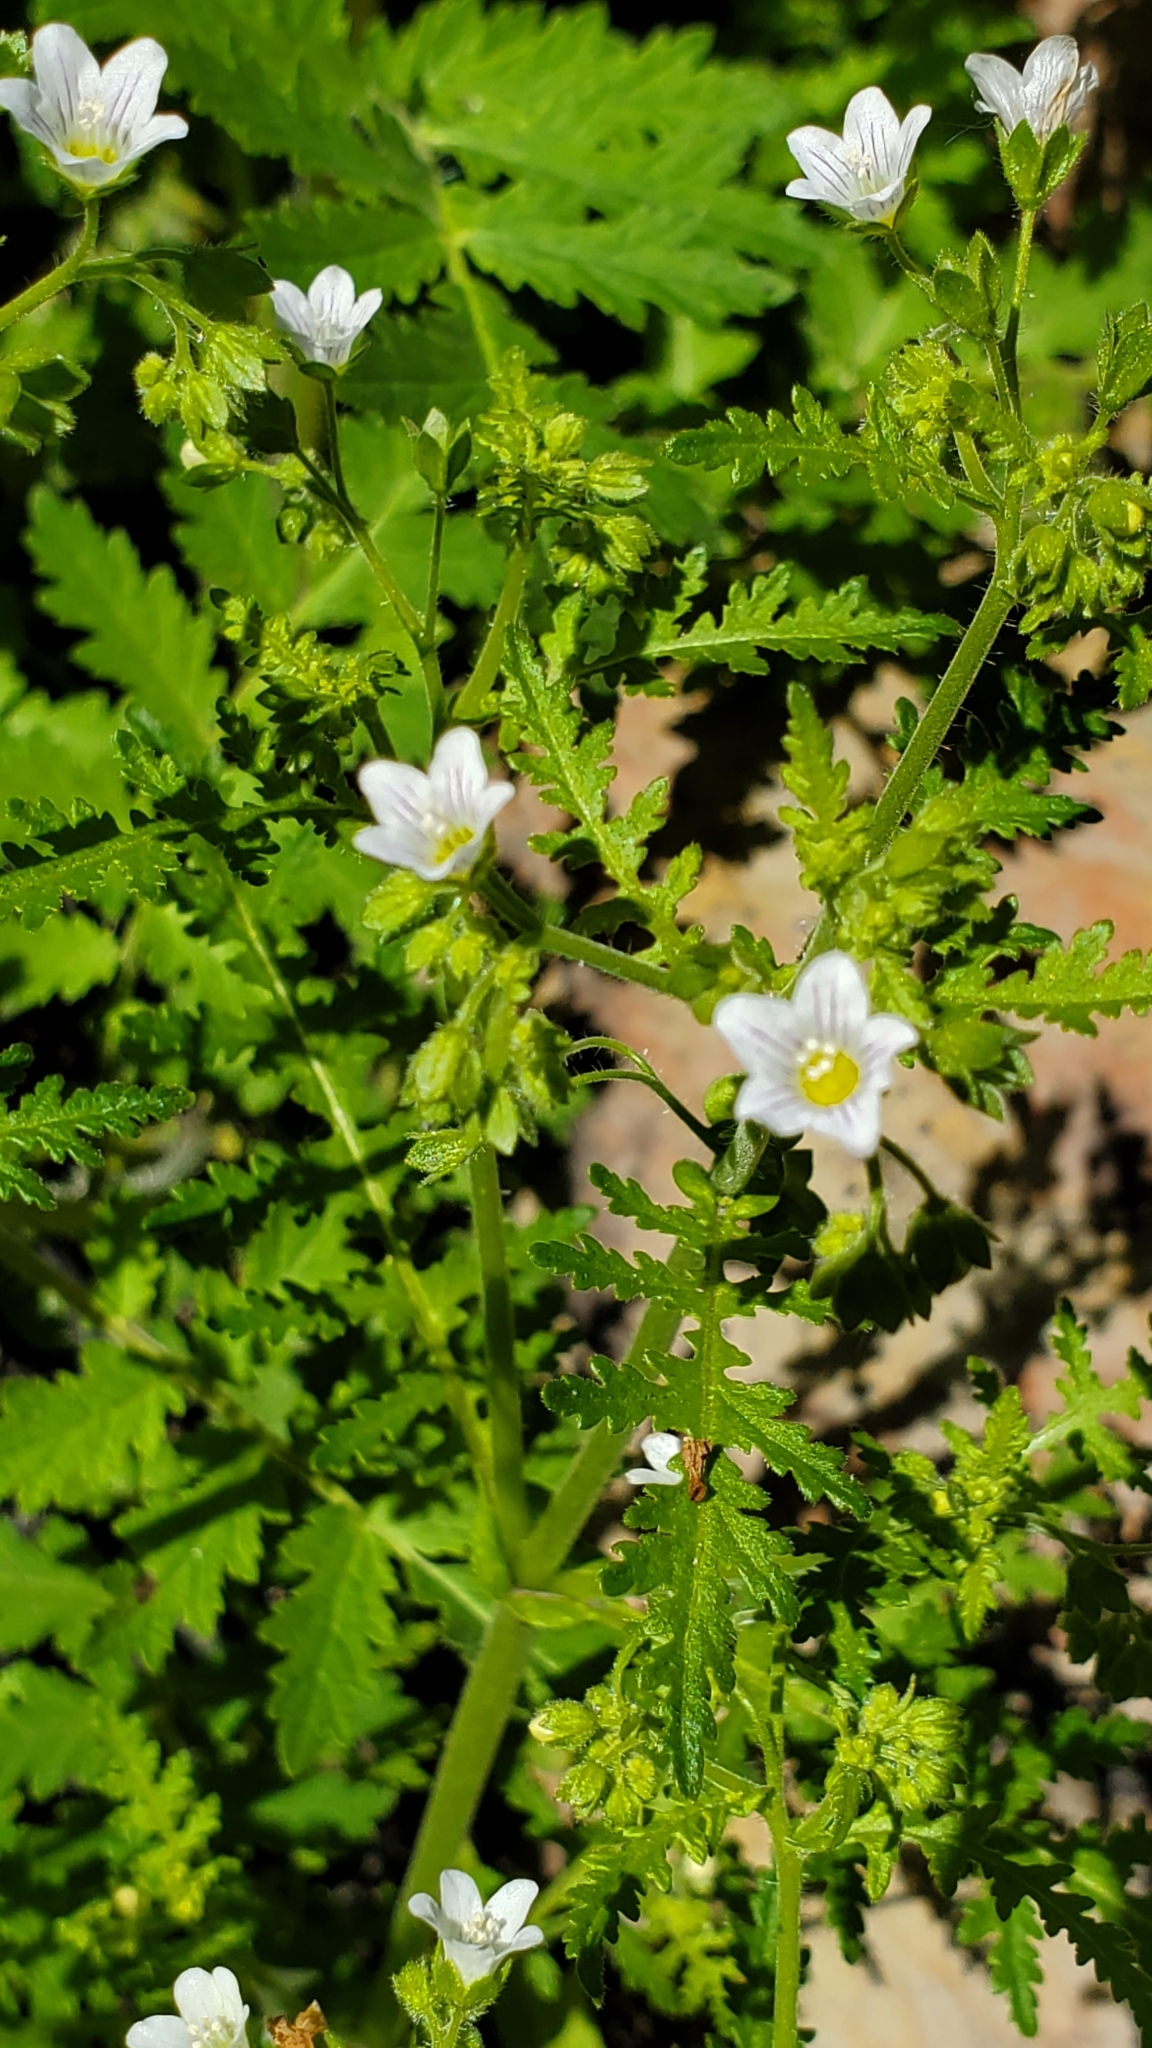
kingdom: Plantae
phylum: Tracheophyta
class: Magnoliopsida
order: Boraginales
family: Hydrophyllaceae
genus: Eucrypta
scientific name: Eucrypta chrysanthemifolia
